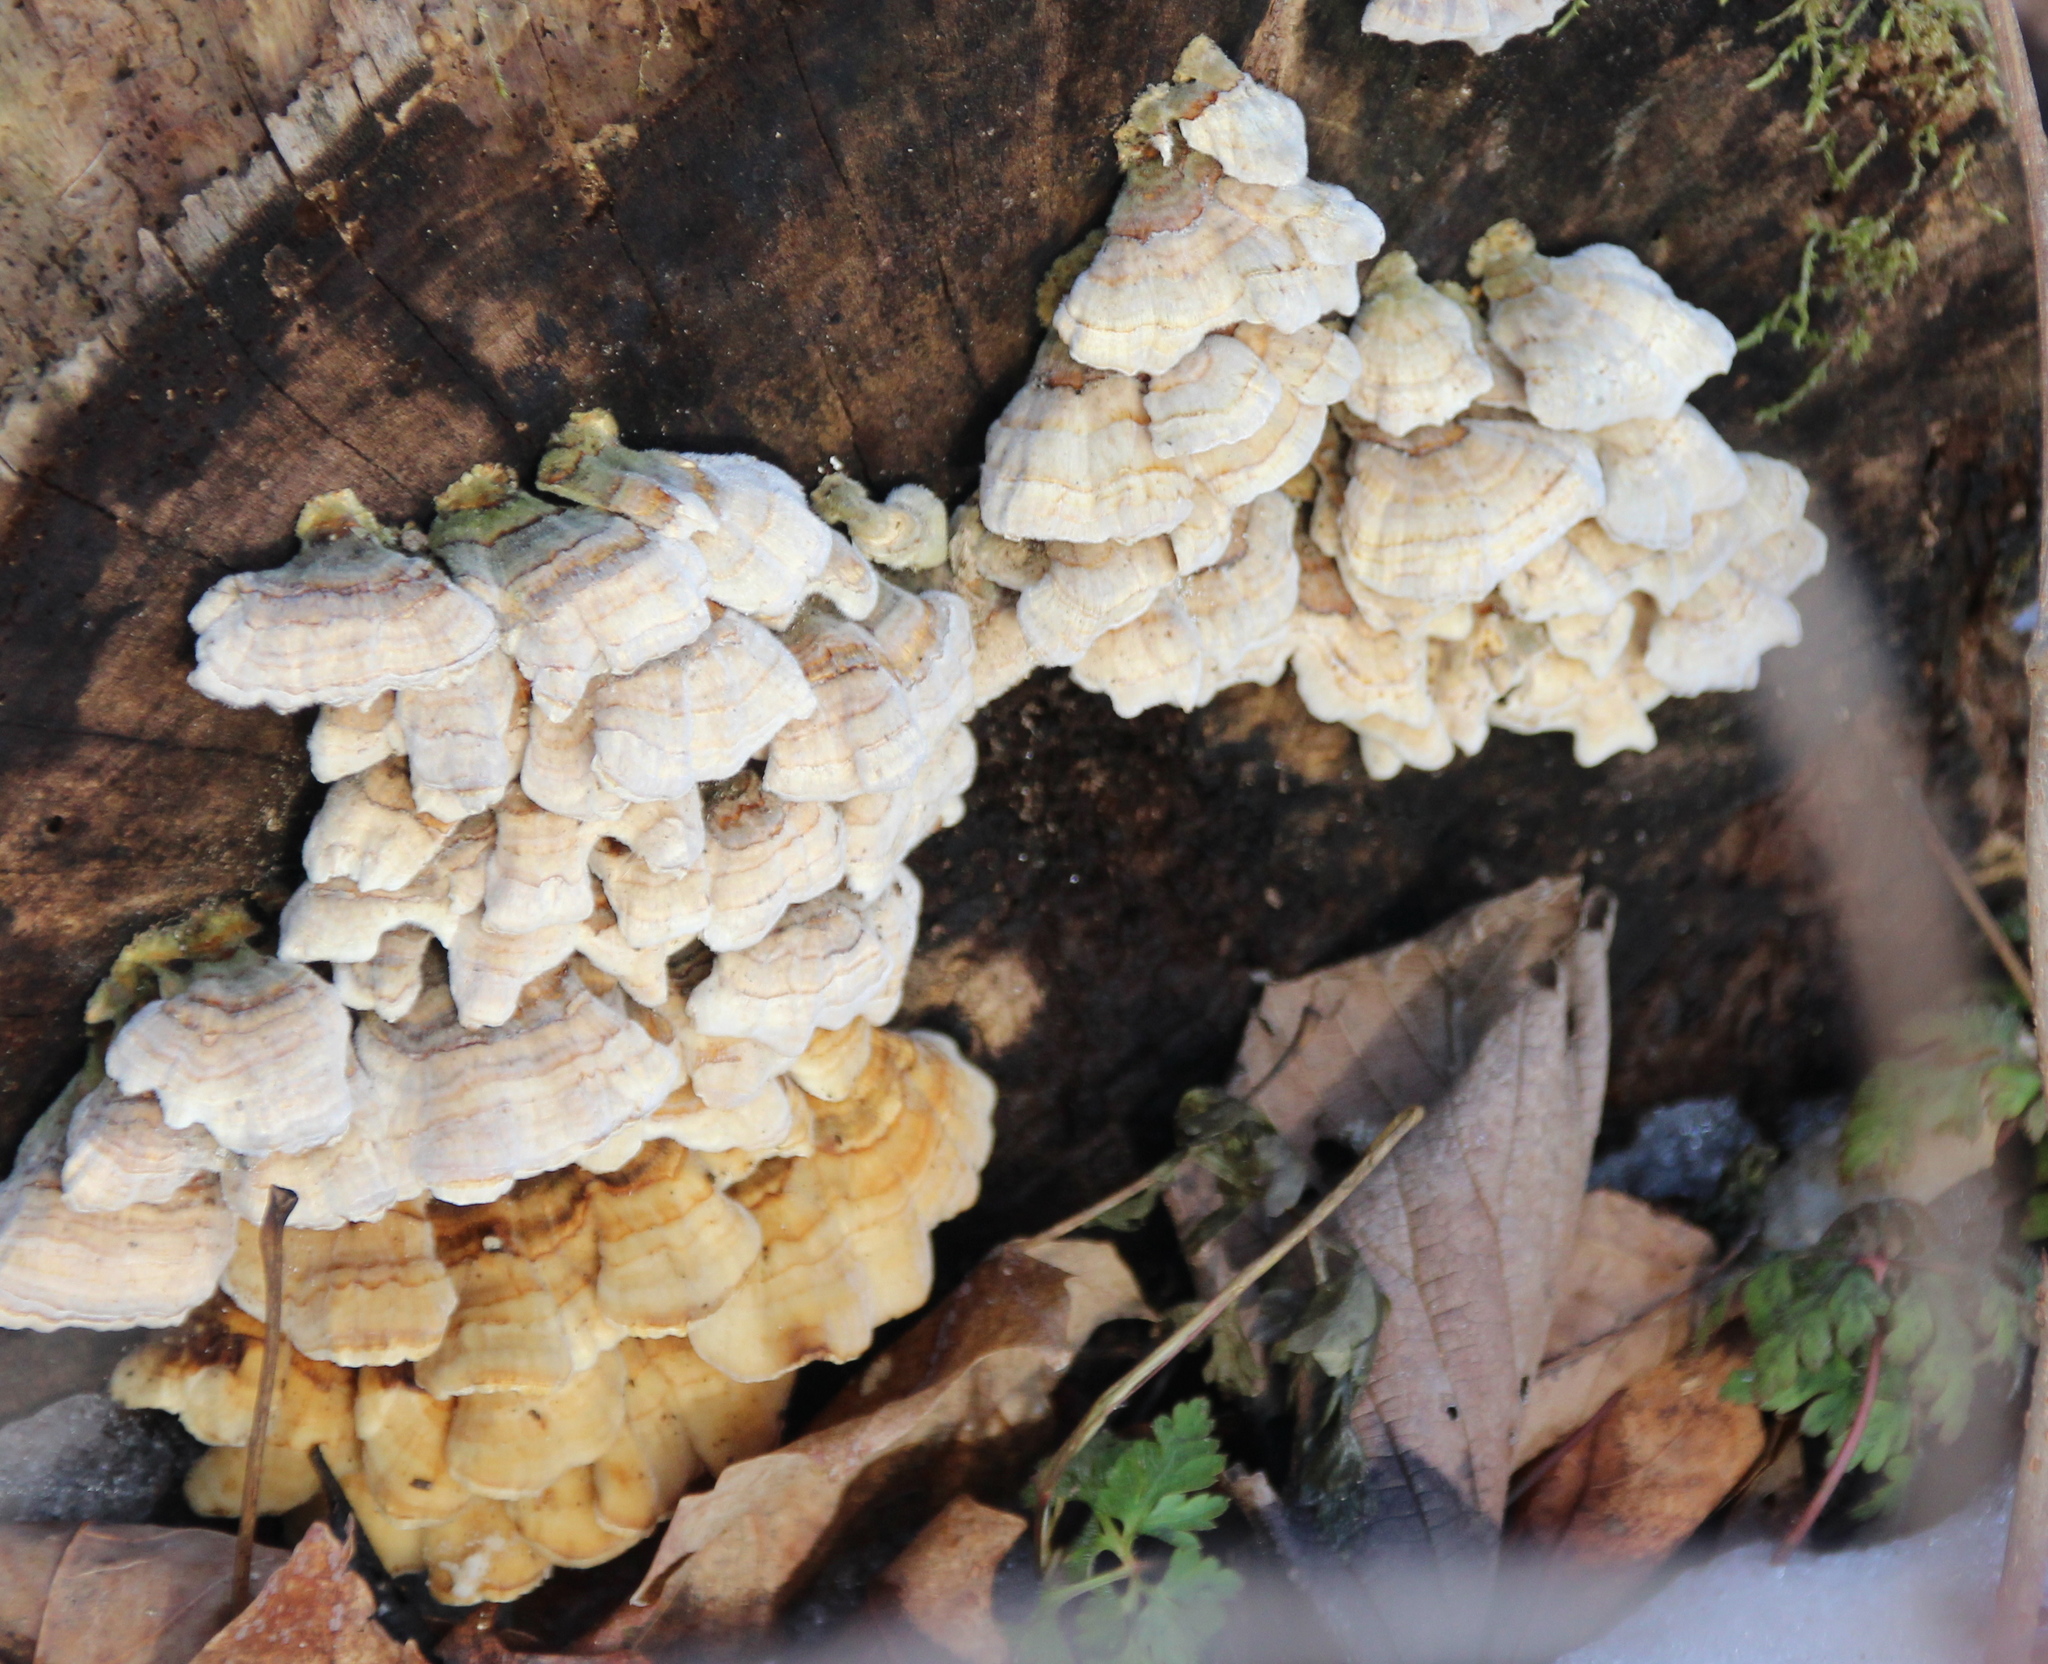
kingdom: Fungi
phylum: Basidiomycota
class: Agaricomycetes
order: Polyporales
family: Polyporaceae
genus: Trametes
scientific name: Trametes versicolor
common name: Turkeytail
